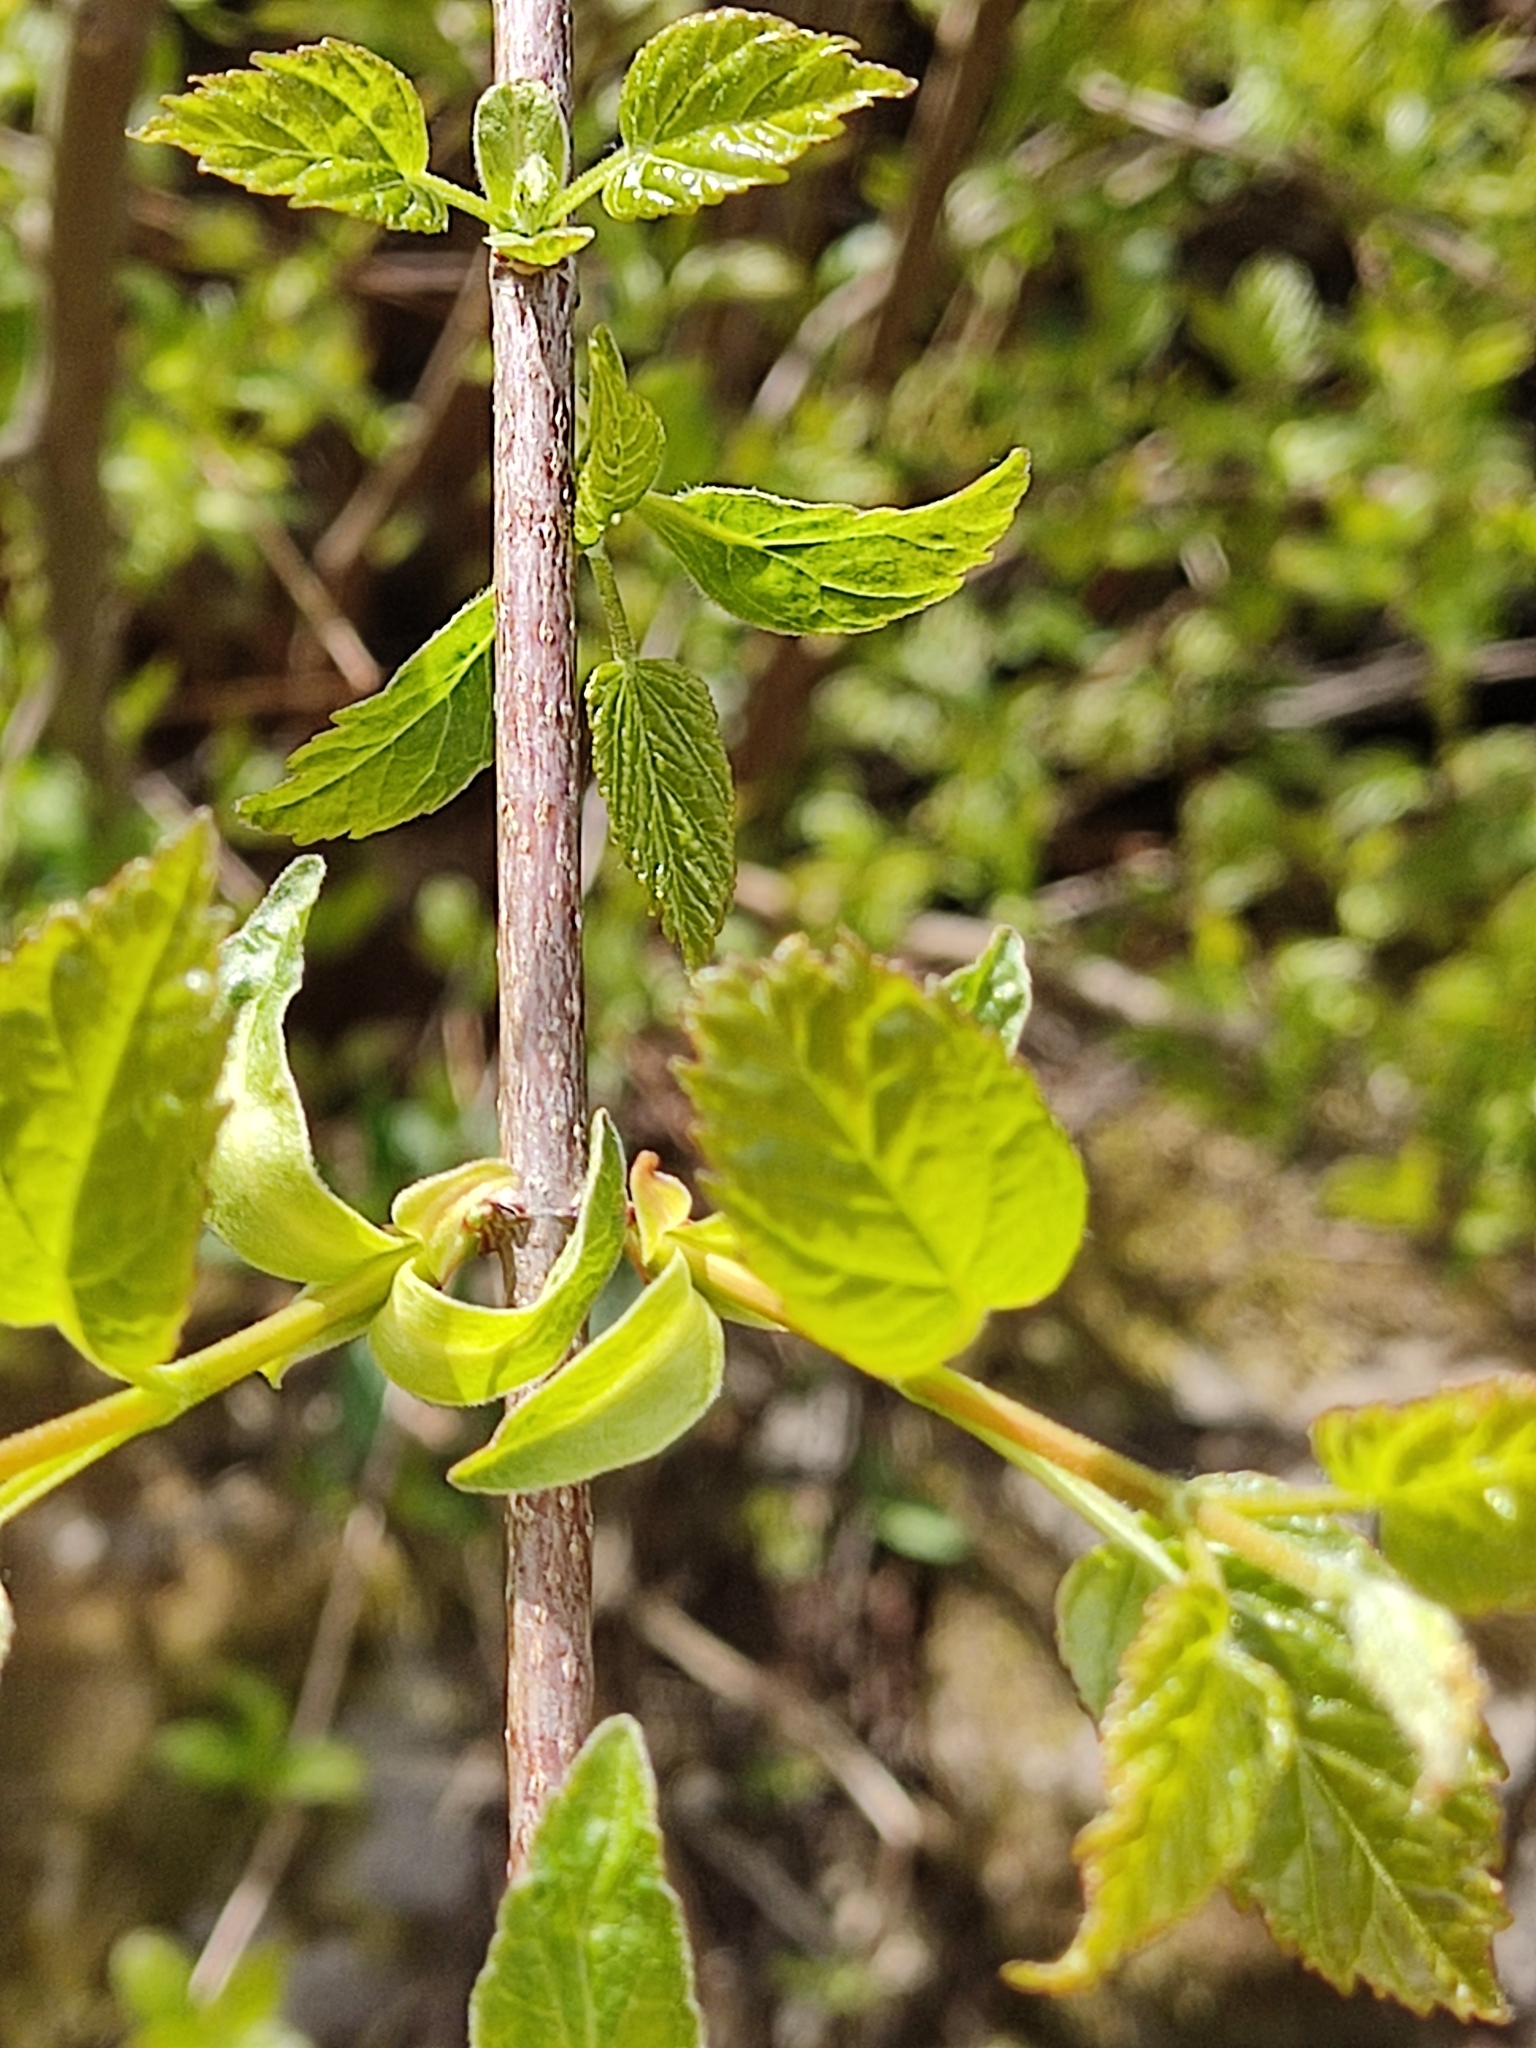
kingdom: Plantae
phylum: Tracheophyta
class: Magnoliopsida
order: Sapindales
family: Sapindaceae
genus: Acer
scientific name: Acer tataricum
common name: Tartar maple
